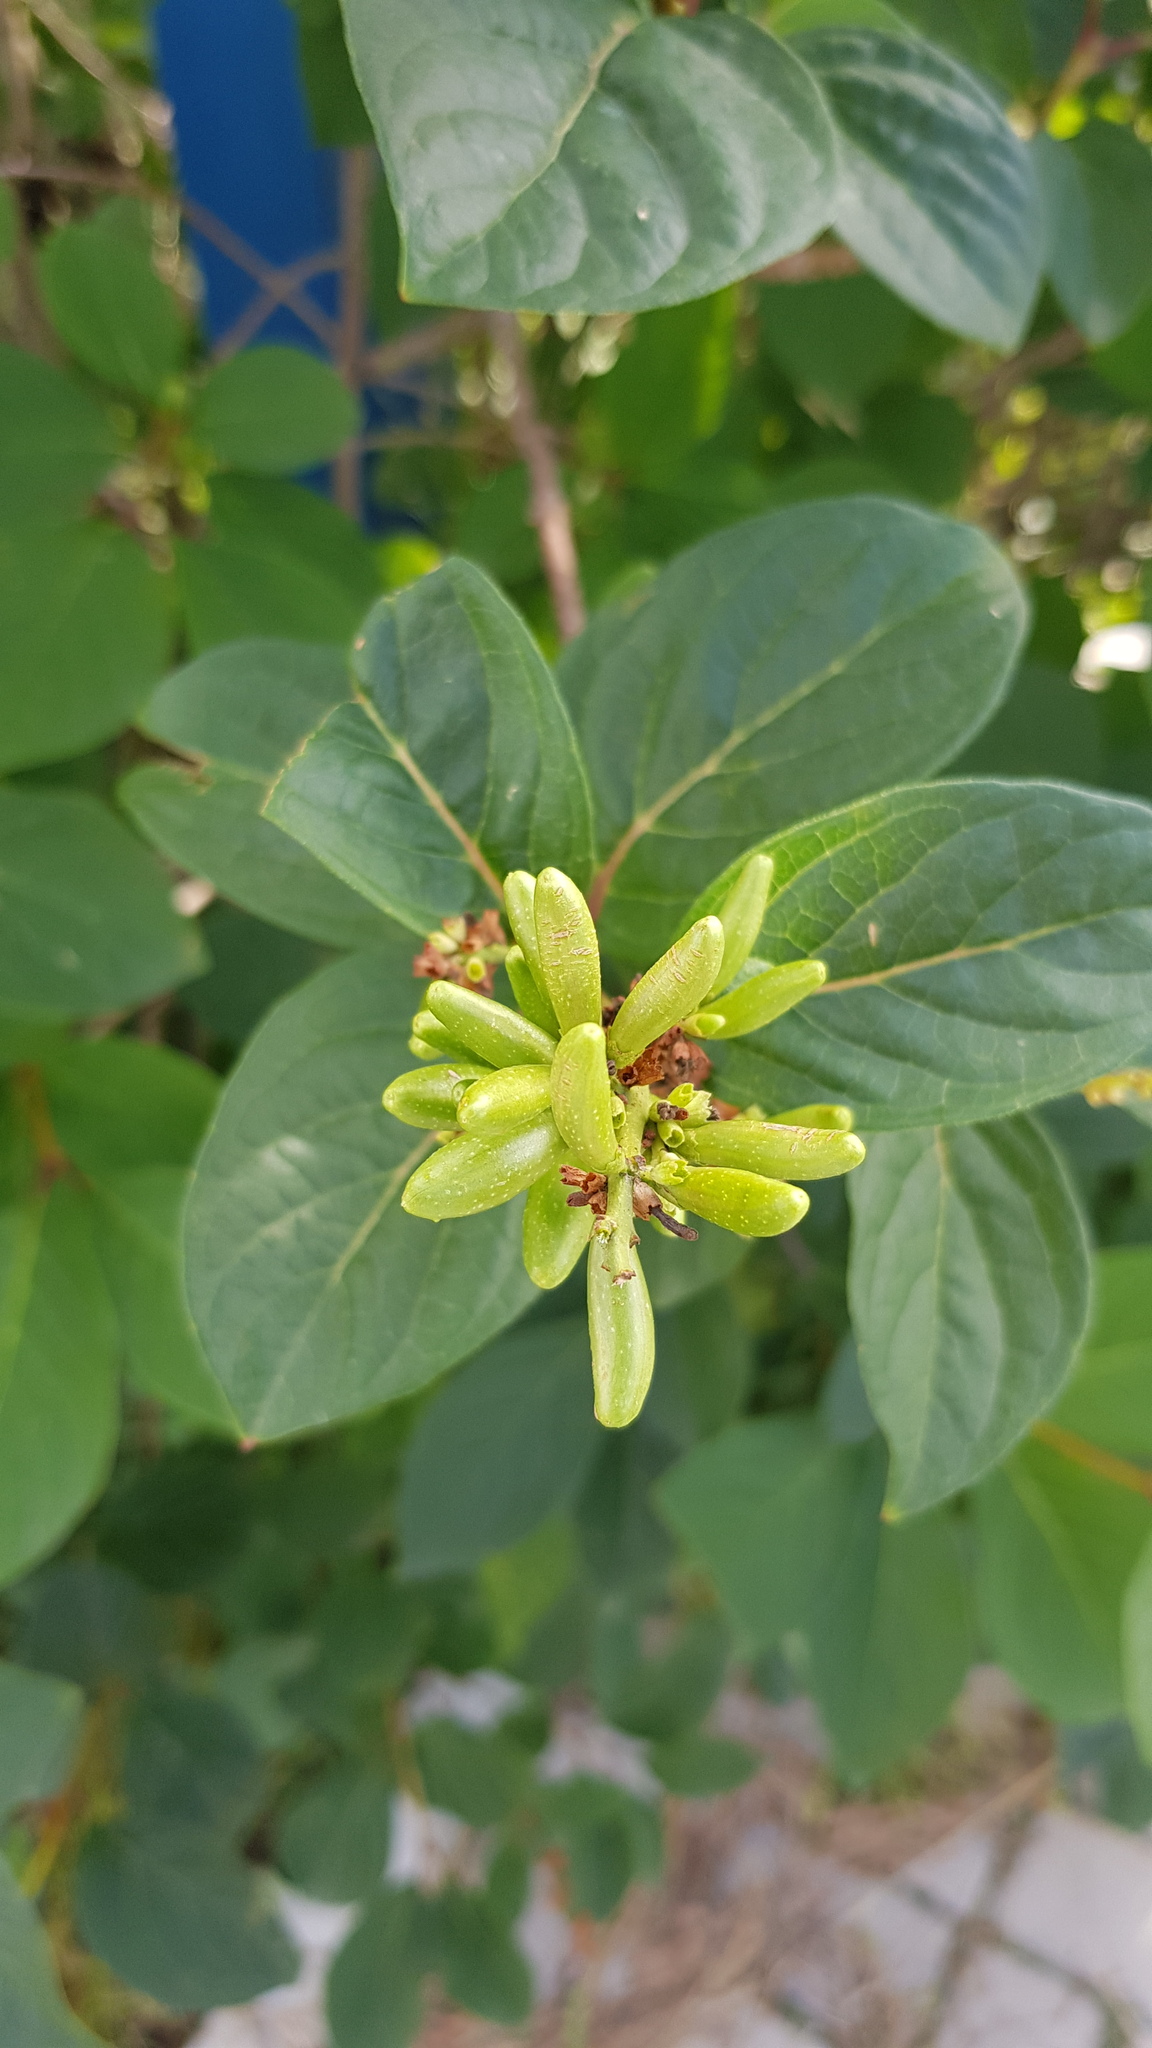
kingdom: Plantae
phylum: Tracheophyta
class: Magnoliopsida
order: Lamiales
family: Oleaceae
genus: Syringa
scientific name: Syringa josikaea
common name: Hungarian lilac
